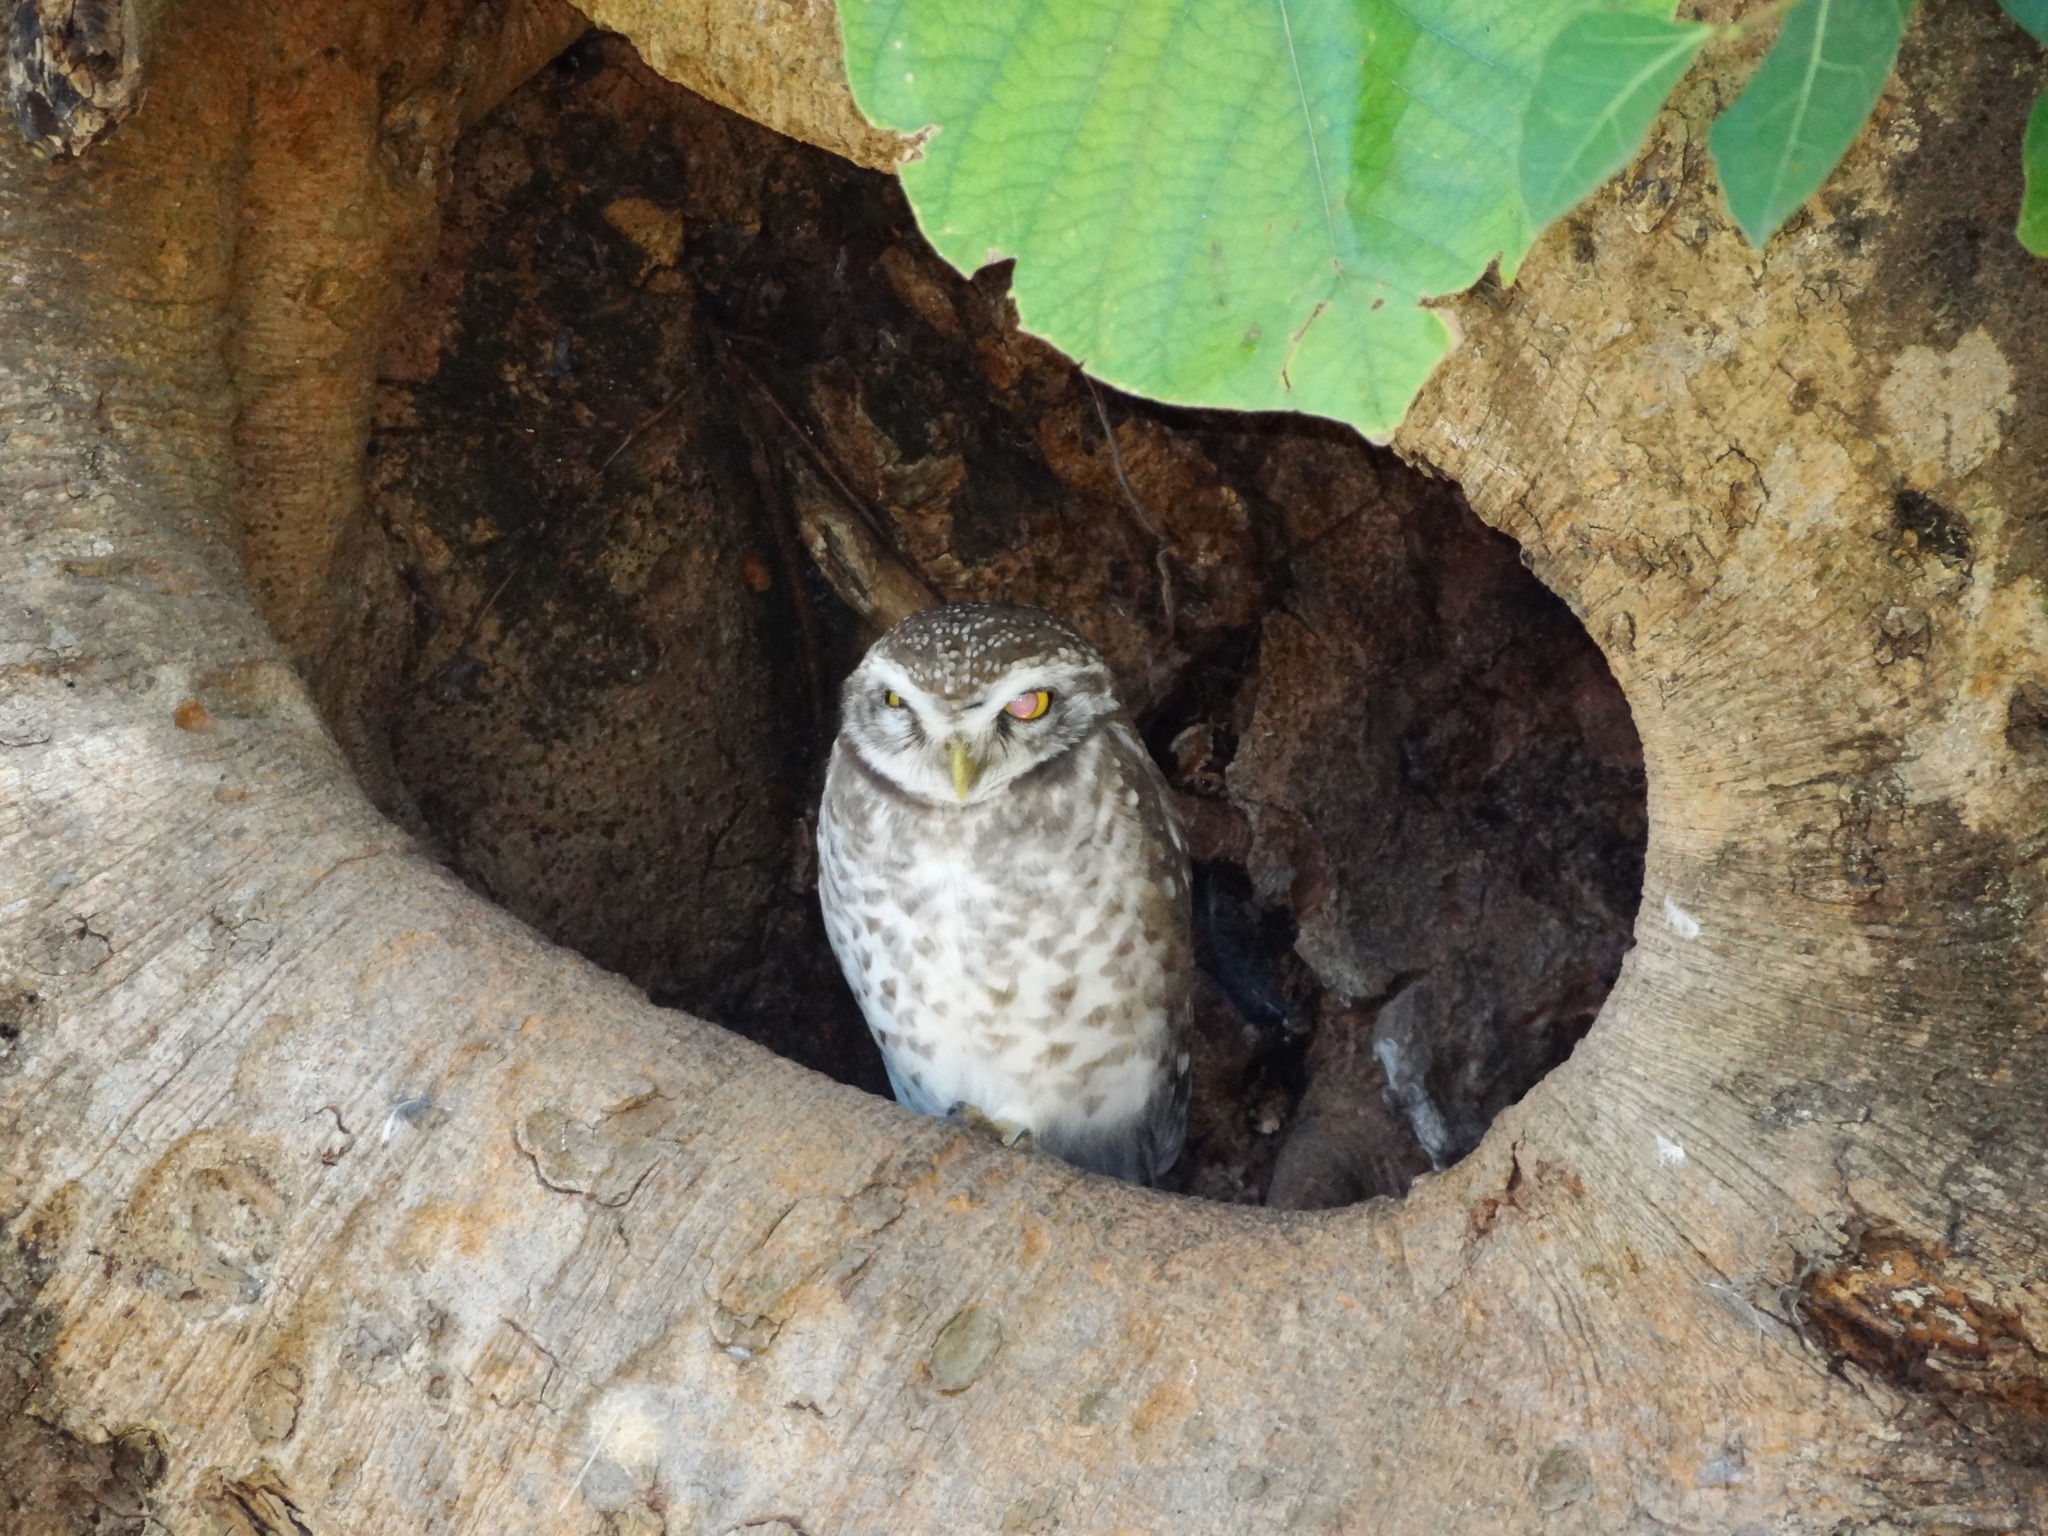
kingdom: Animalia
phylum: Chordata
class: Aves
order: Strigiformes
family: Strigidae
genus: Athene
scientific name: Athene brama
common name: Spotted owlet
